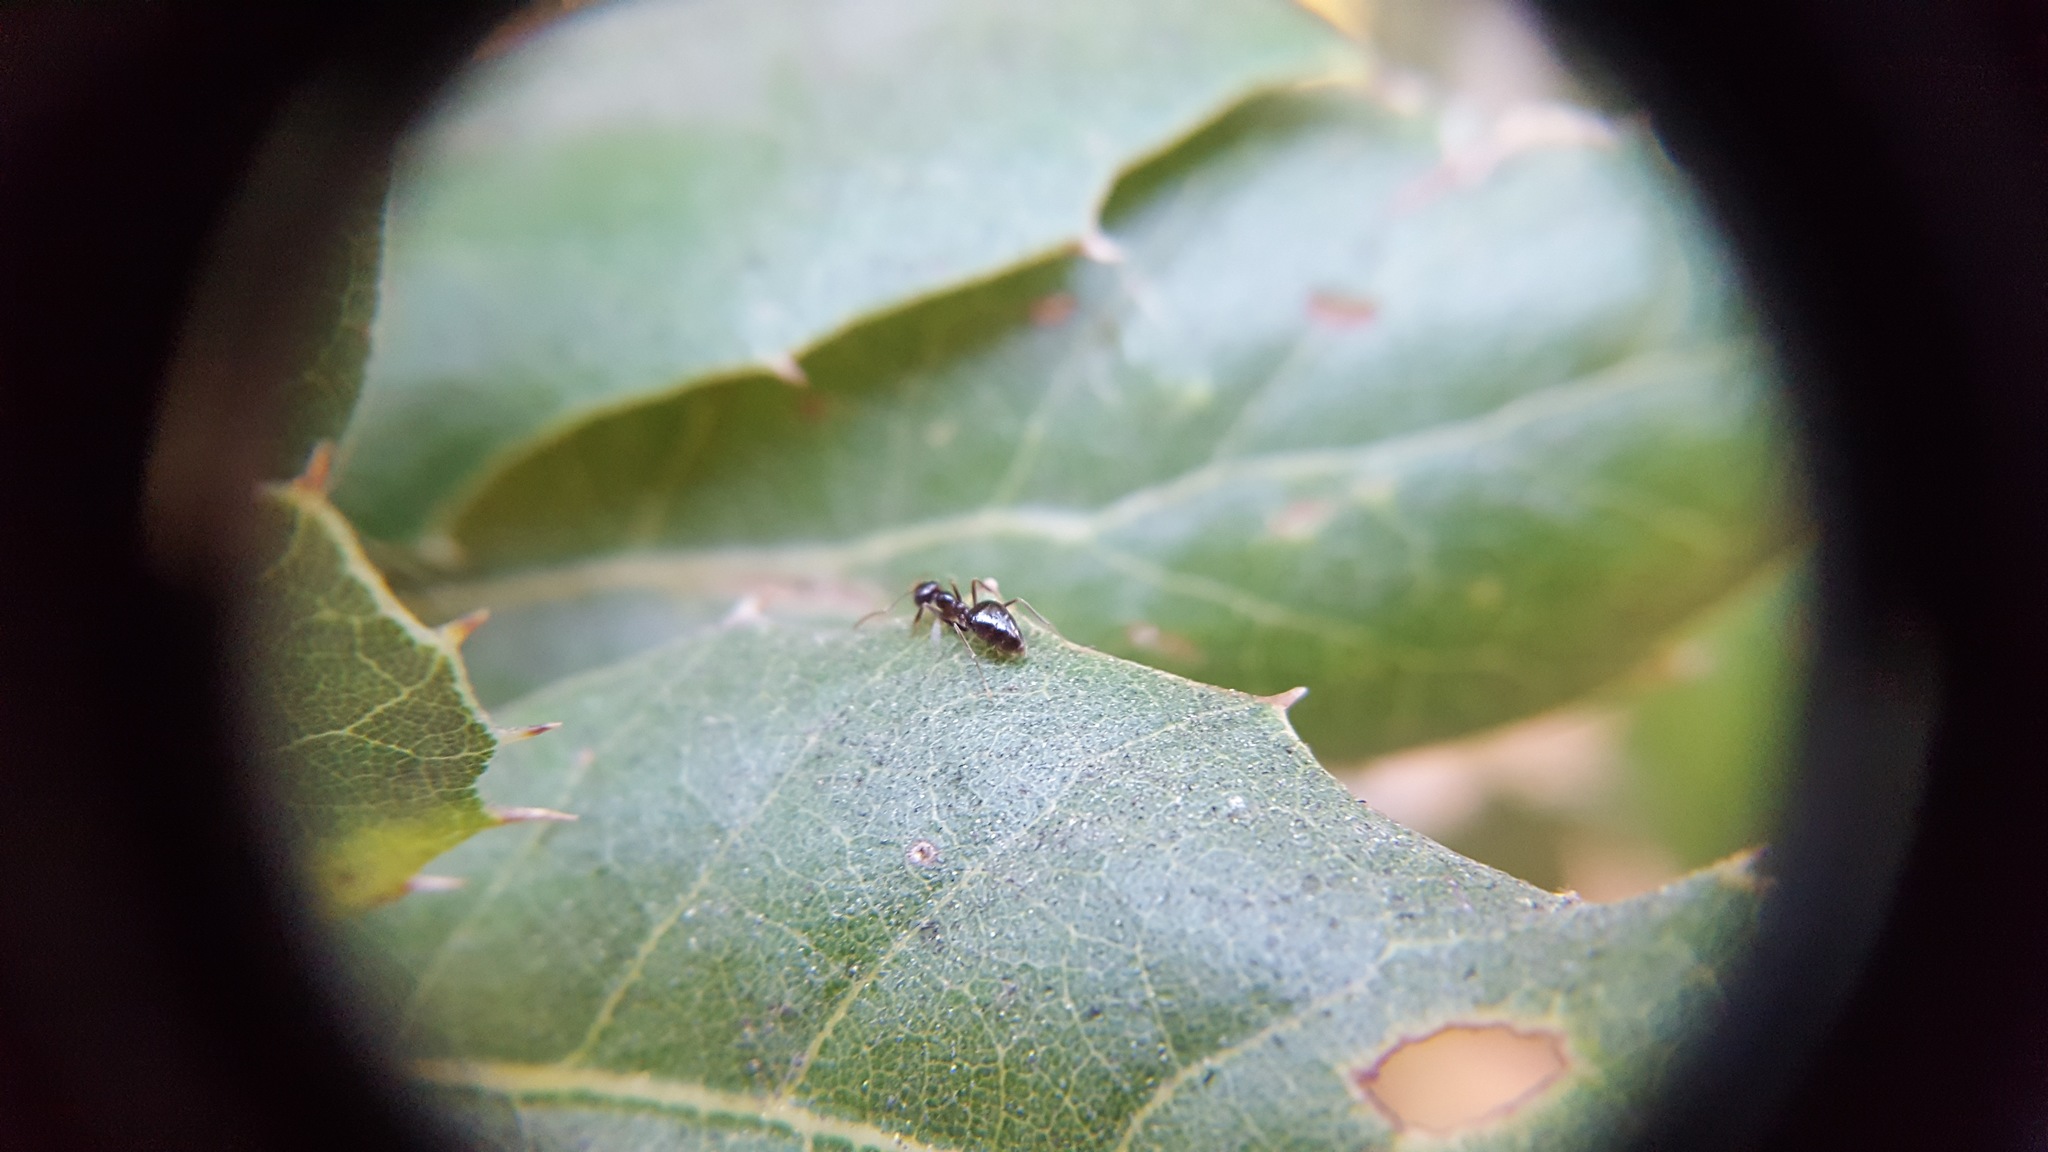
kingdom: Animalia
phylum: Arthropoda
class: Insecta
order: Hymenoptera
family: Formicidae
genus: Prenolepis
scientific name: Prenolepis imparis
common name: Small honey ant
